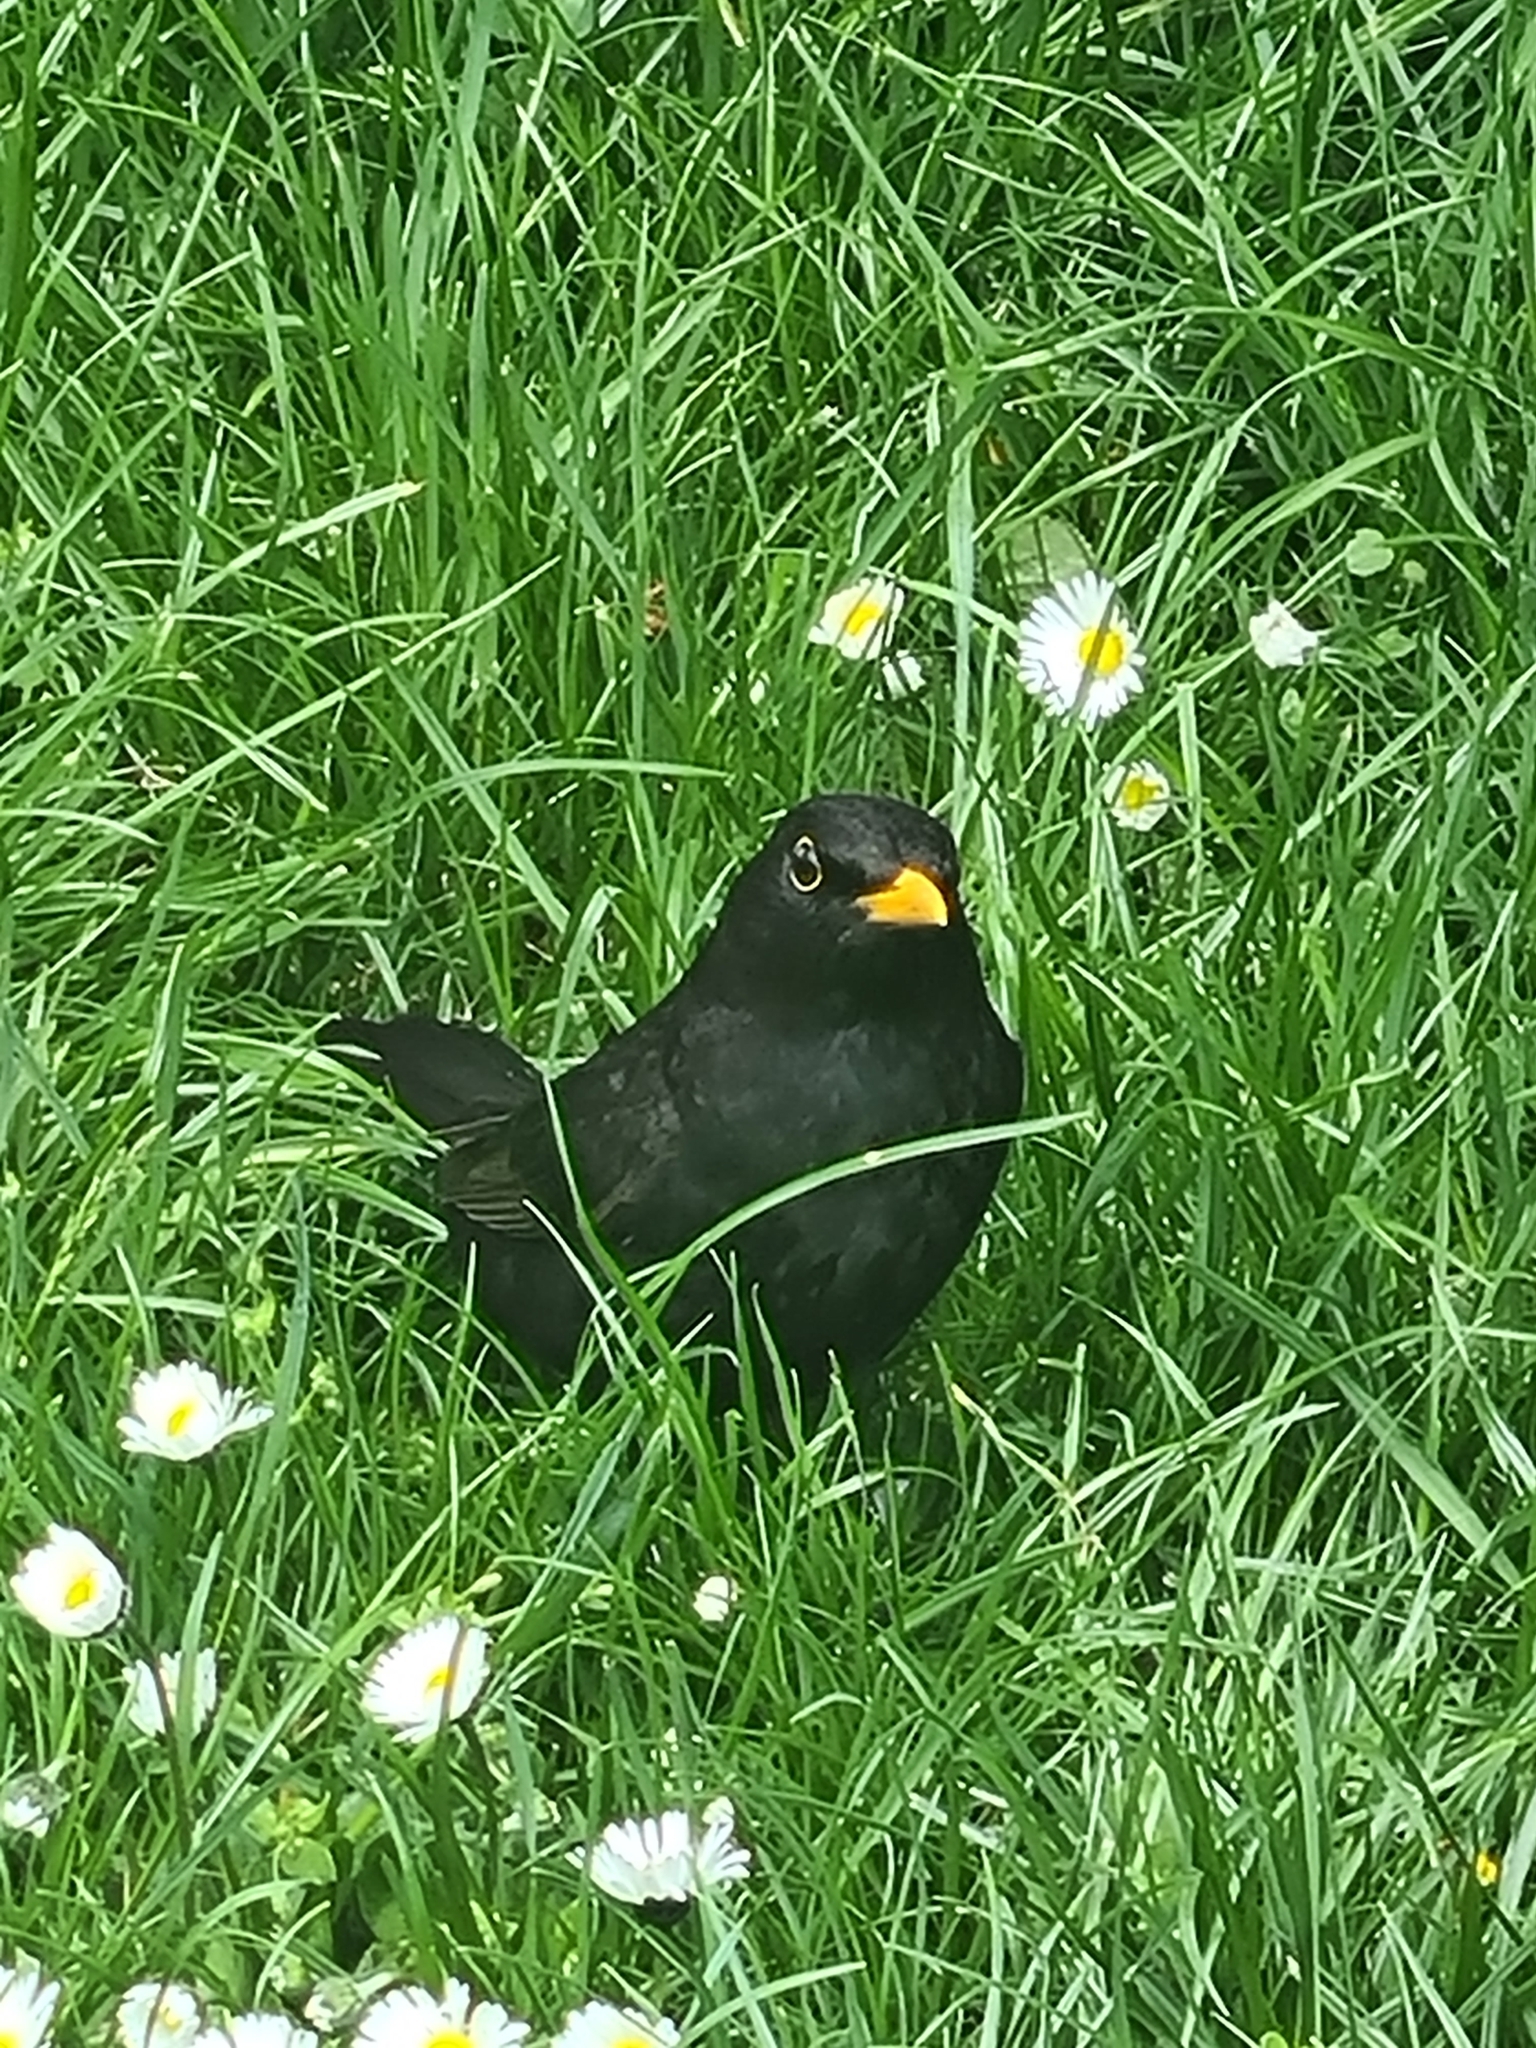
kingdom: Animalia
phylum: Chordata
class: Aves
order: Passeriformes
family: Turdidae
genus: Turdus
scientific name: Turdus merula
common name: Common blackbird
